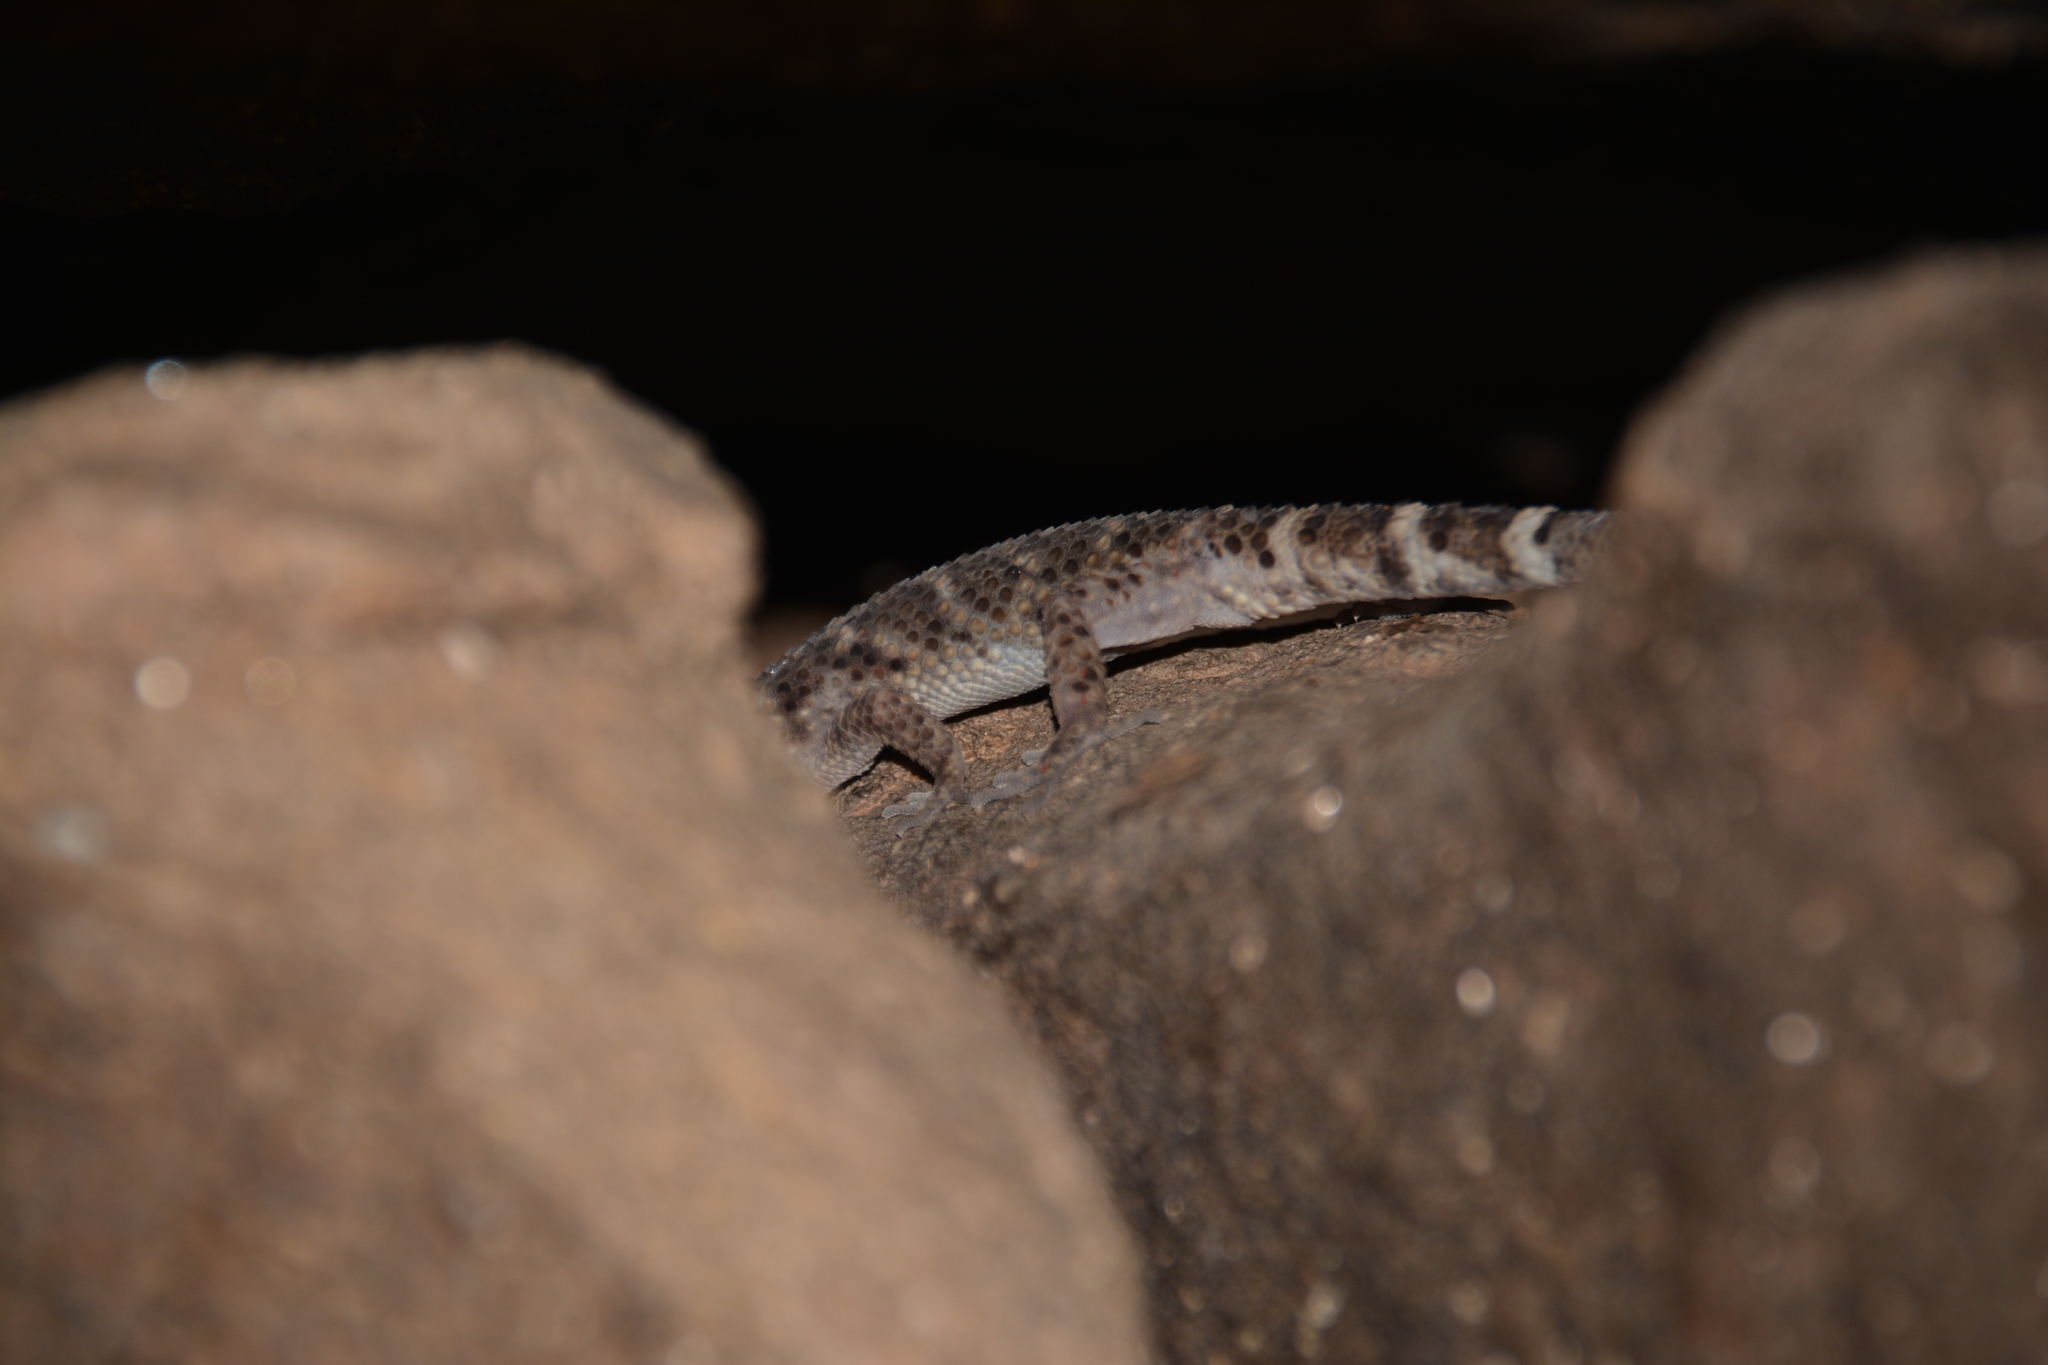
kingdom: Animalia
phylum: Chordata
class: Squamata
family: Phyllodactylidae
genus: Homonota
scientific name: Homonota horrida
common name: South american marked gecko
